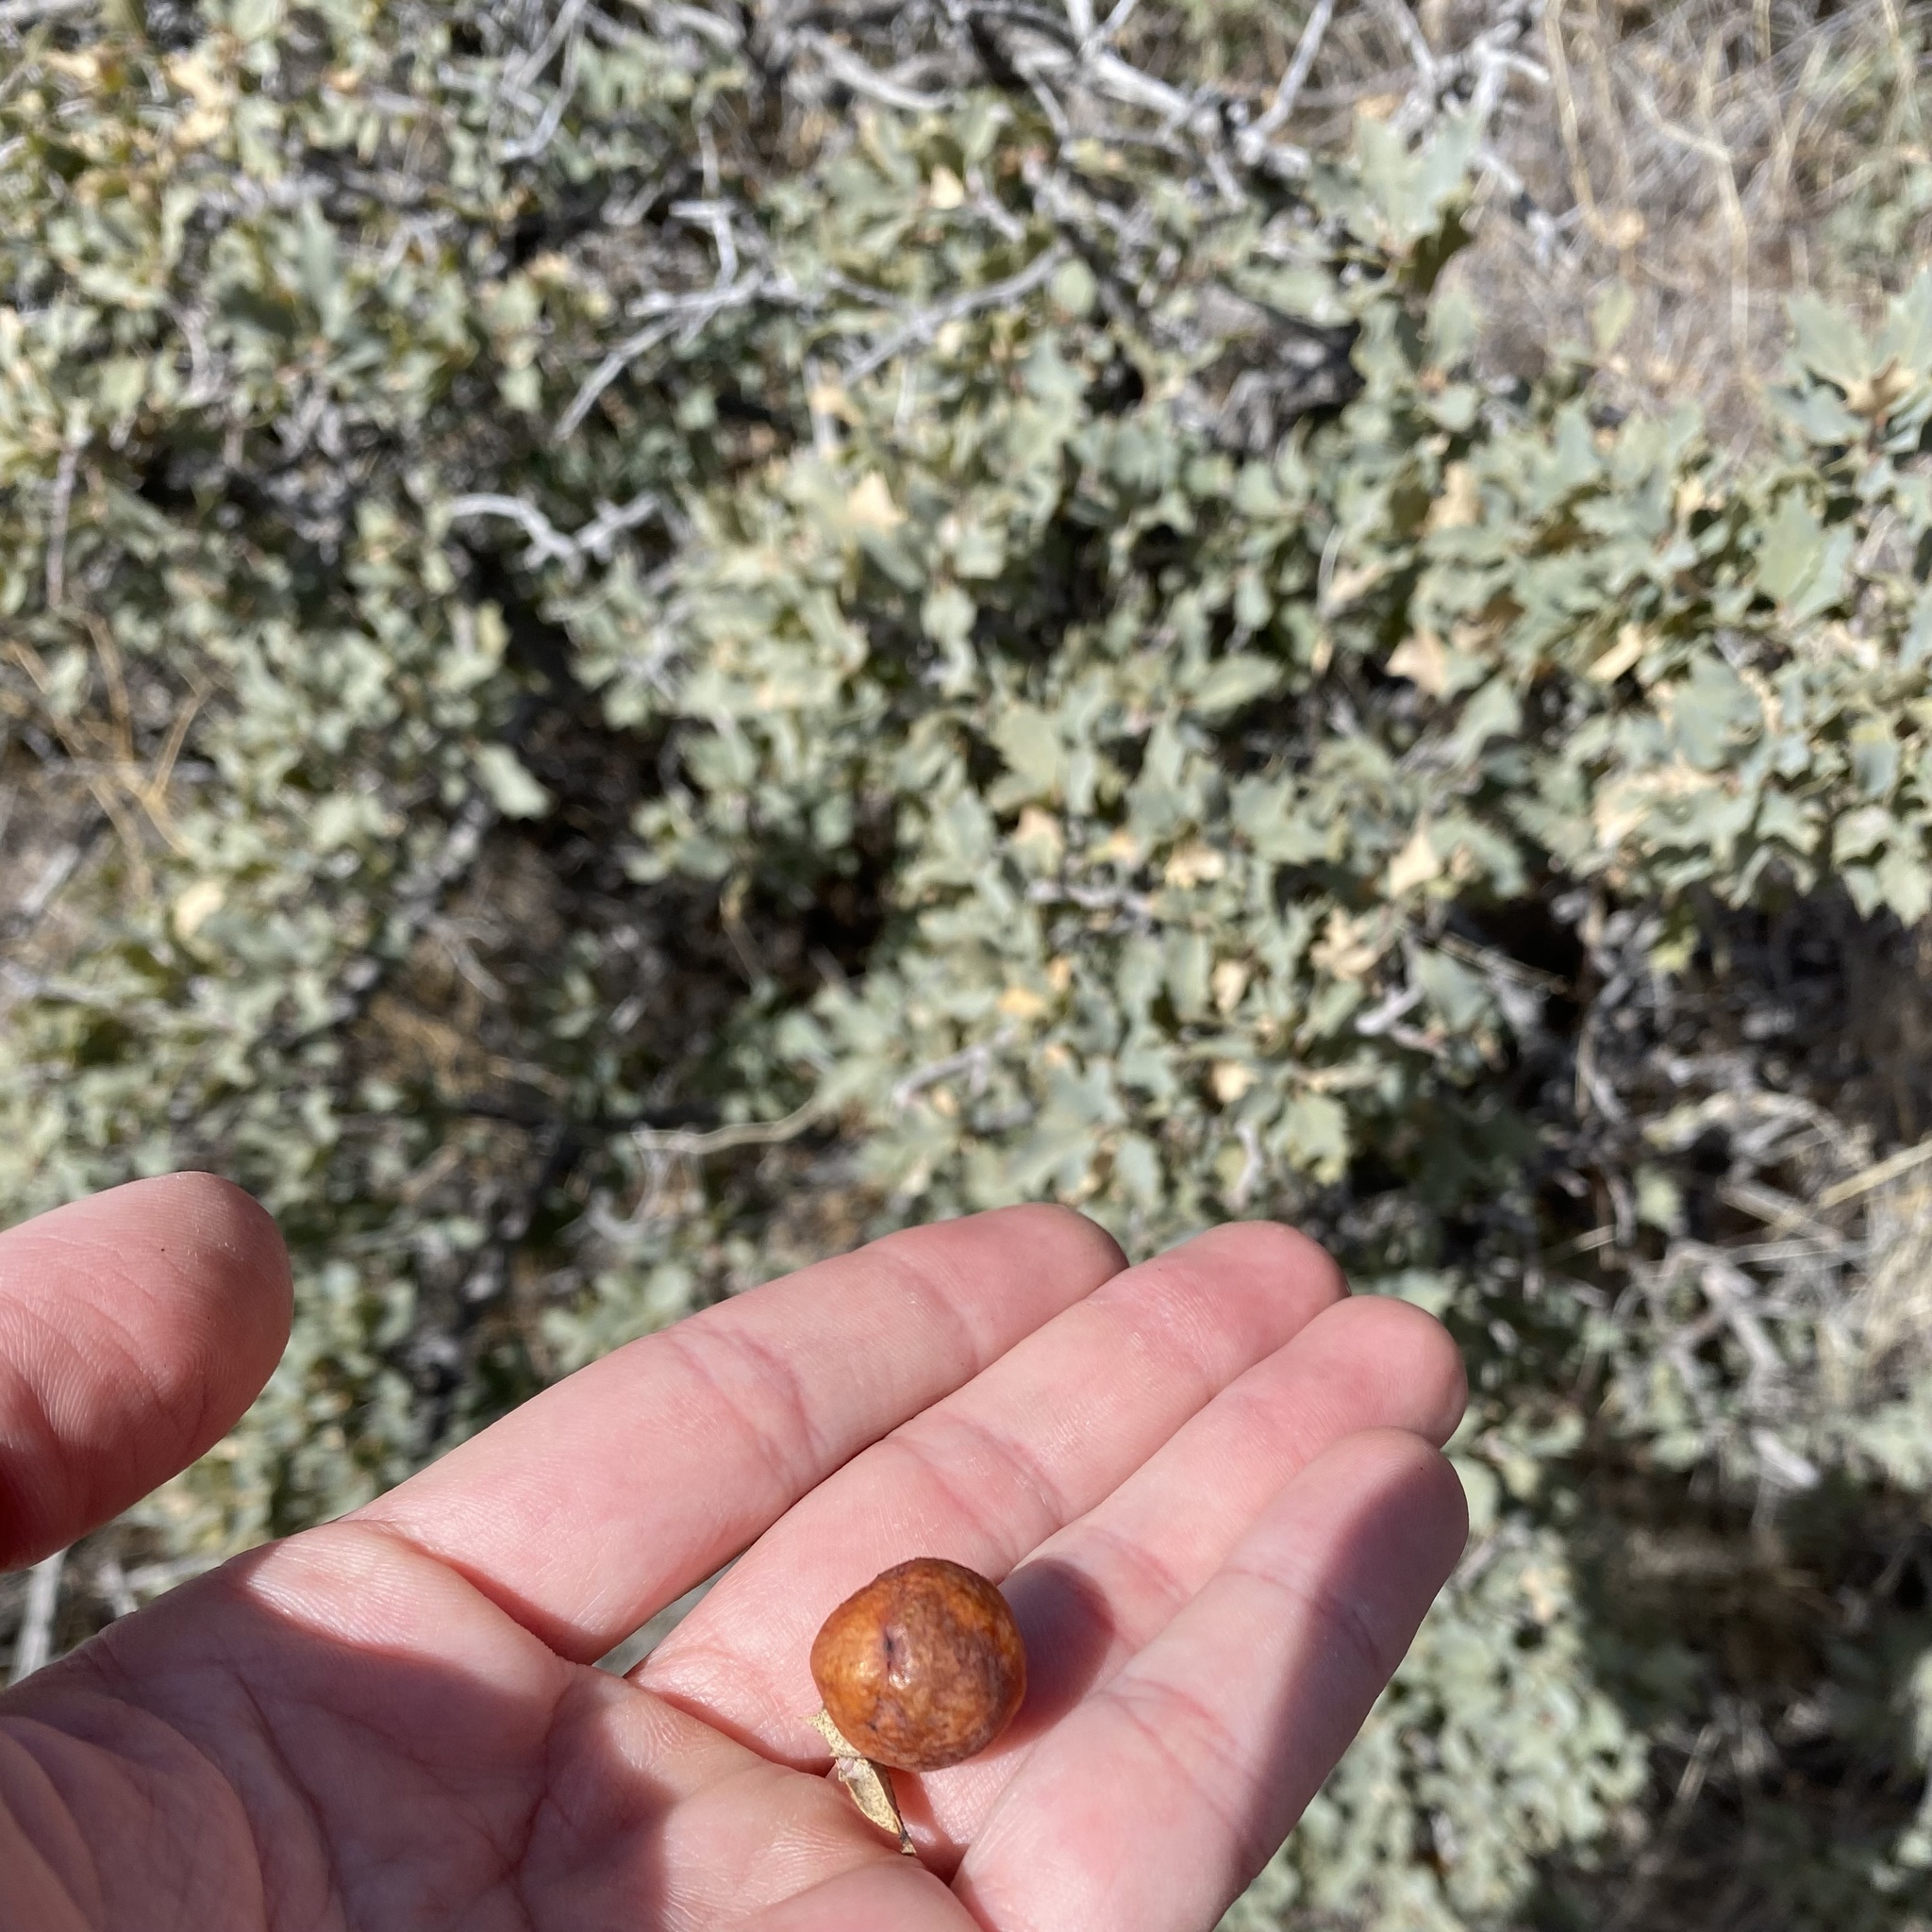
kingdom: Animalia
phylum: Arthropoda
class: Insecta
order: Hymenoptera
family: Cynipidae
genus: Atrusca
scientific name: Atrusca
